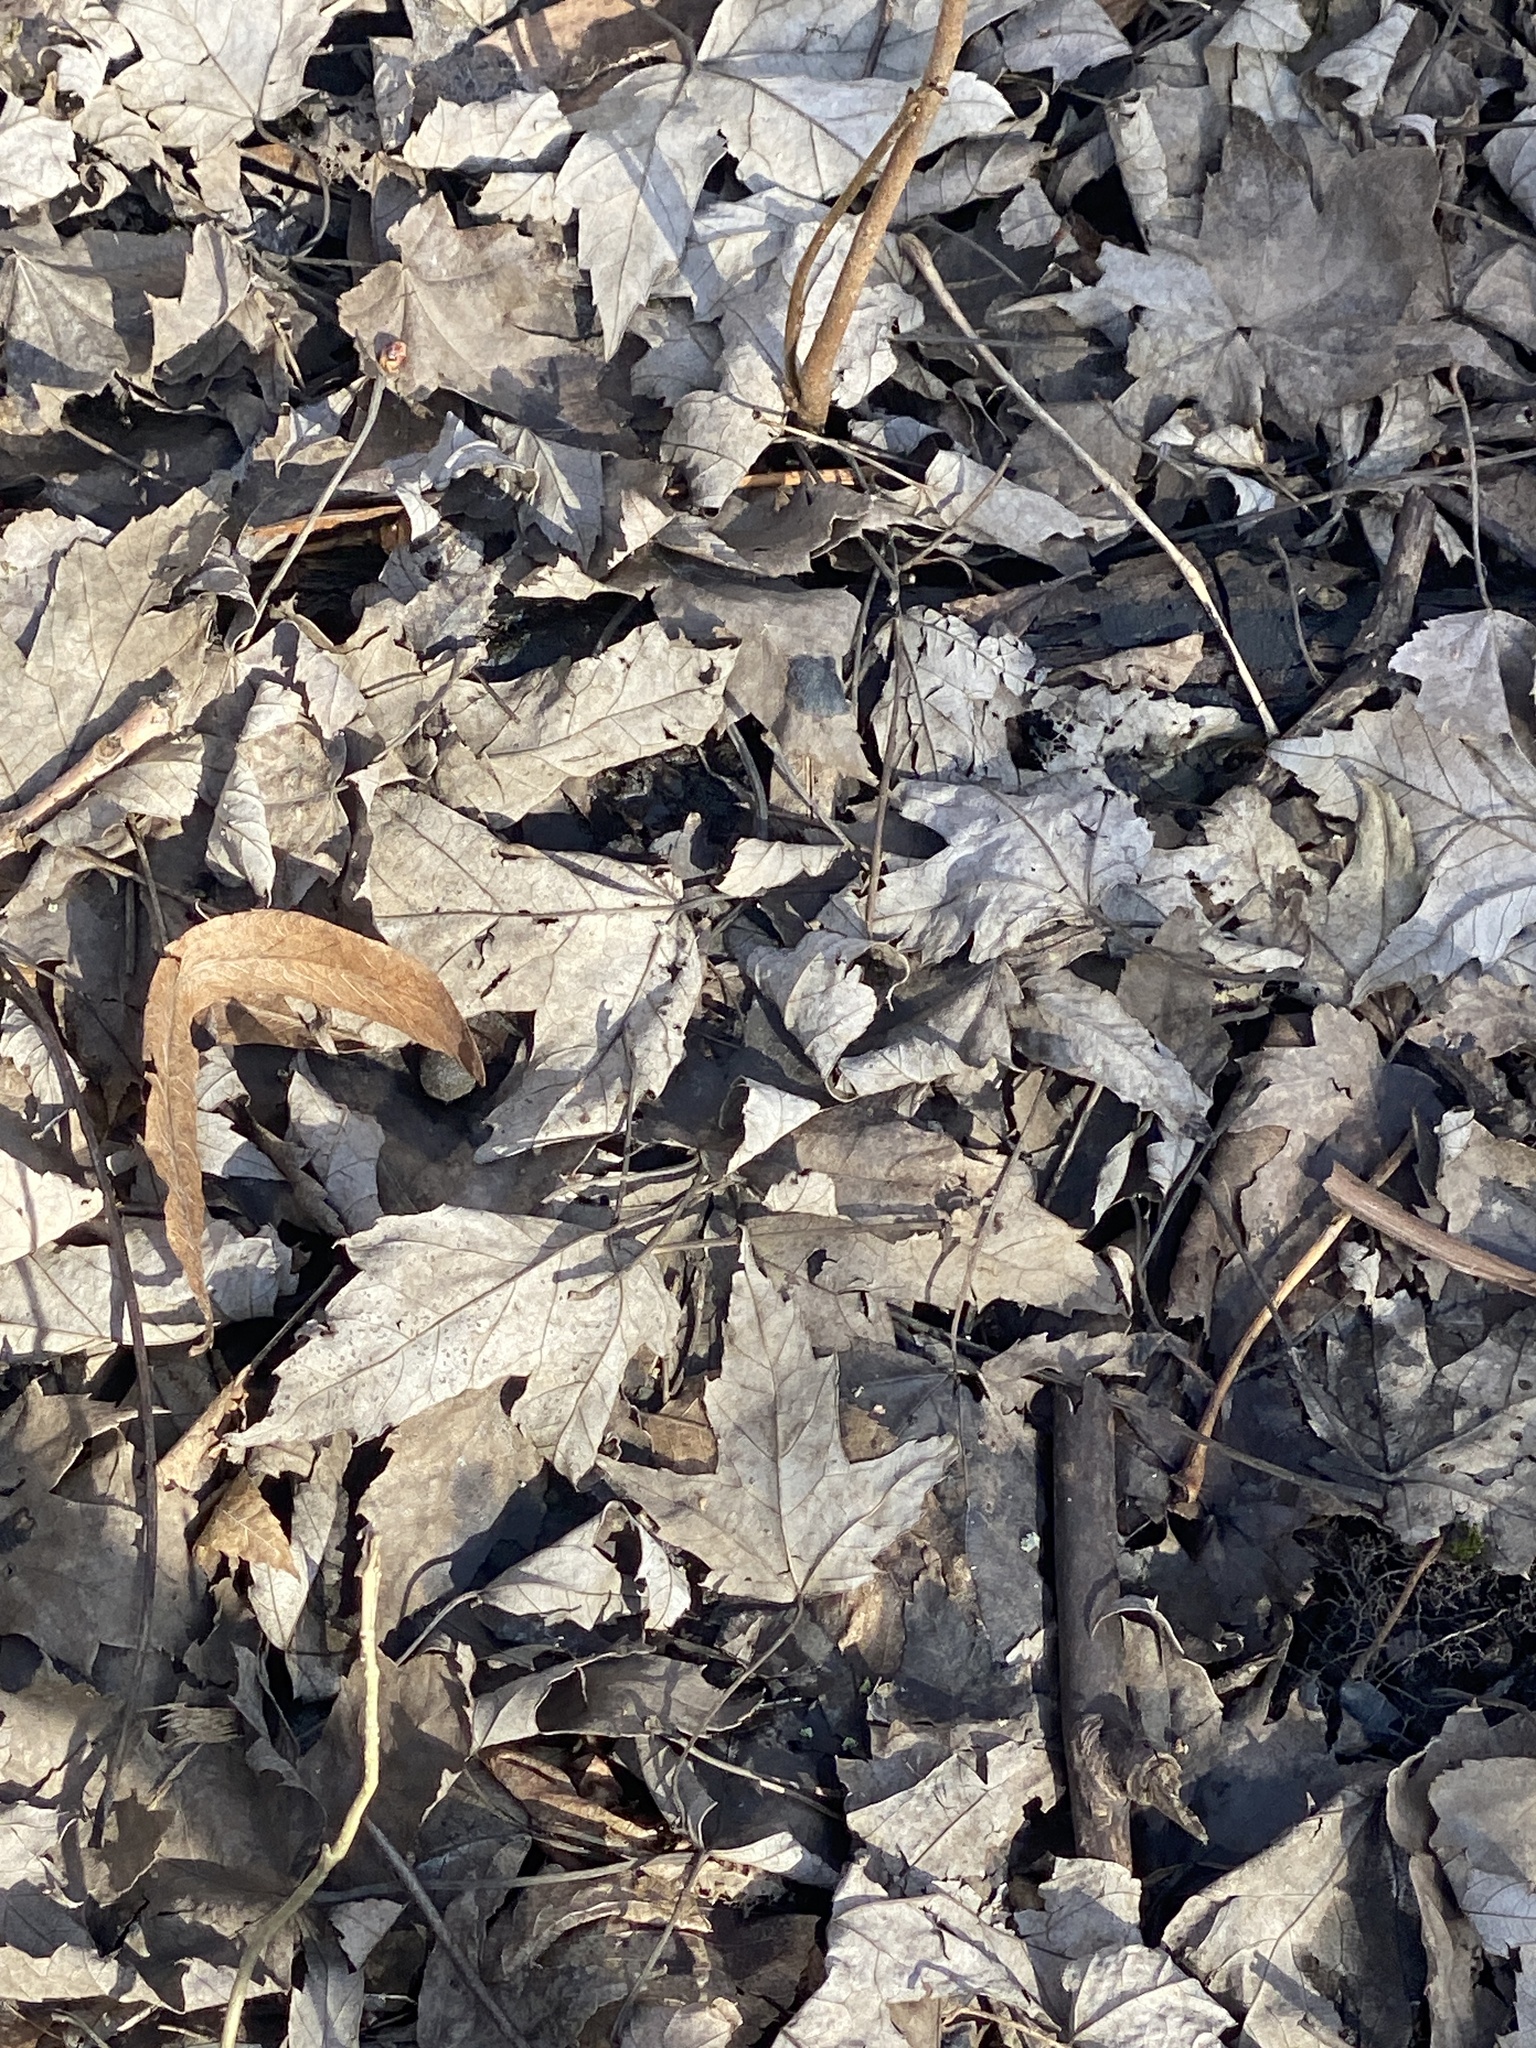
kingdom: Plantae
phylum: Tracheophyta
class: Magnoliopsida
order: Sapindales
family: Sapindaceae
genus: Acer
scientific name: Acer saccharinum
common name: Silver maple
